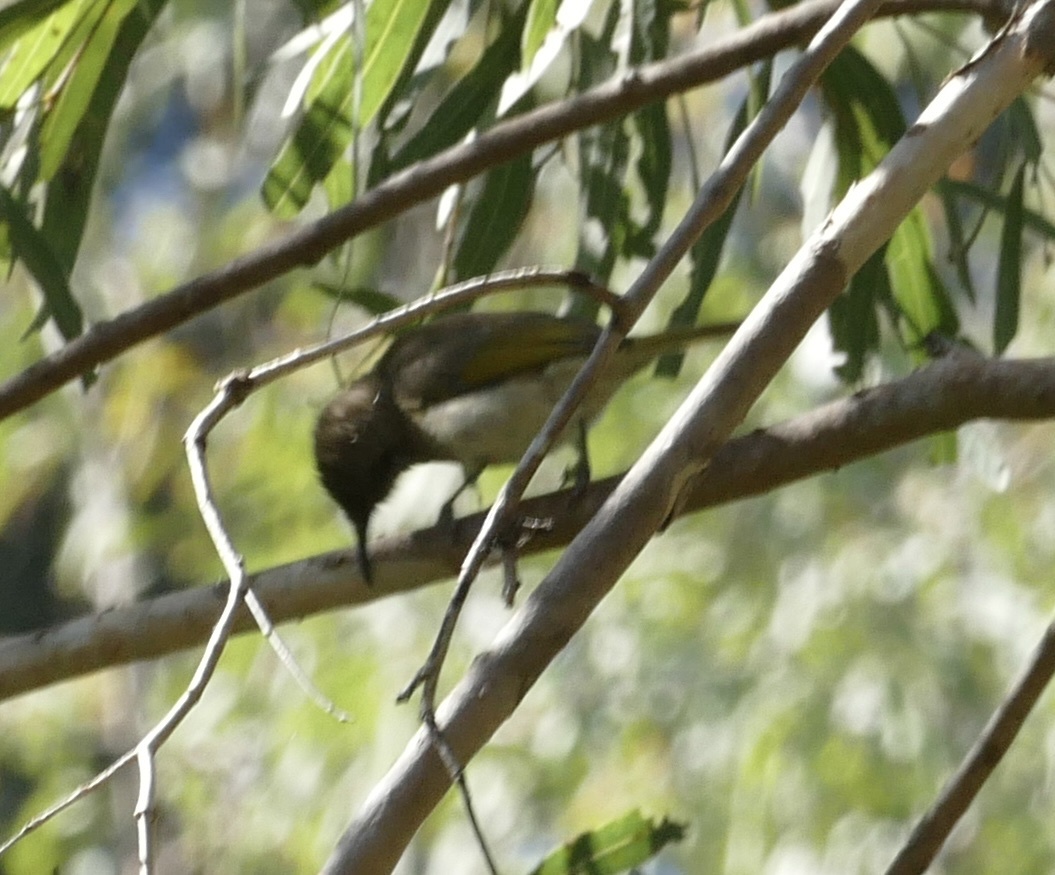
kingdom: Animalia
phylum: Chordata
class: Aves
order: Passeriformes
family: Meliphagidae
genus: Lichmera
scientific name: Lichmera indistincta
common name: Brown honeyeater
